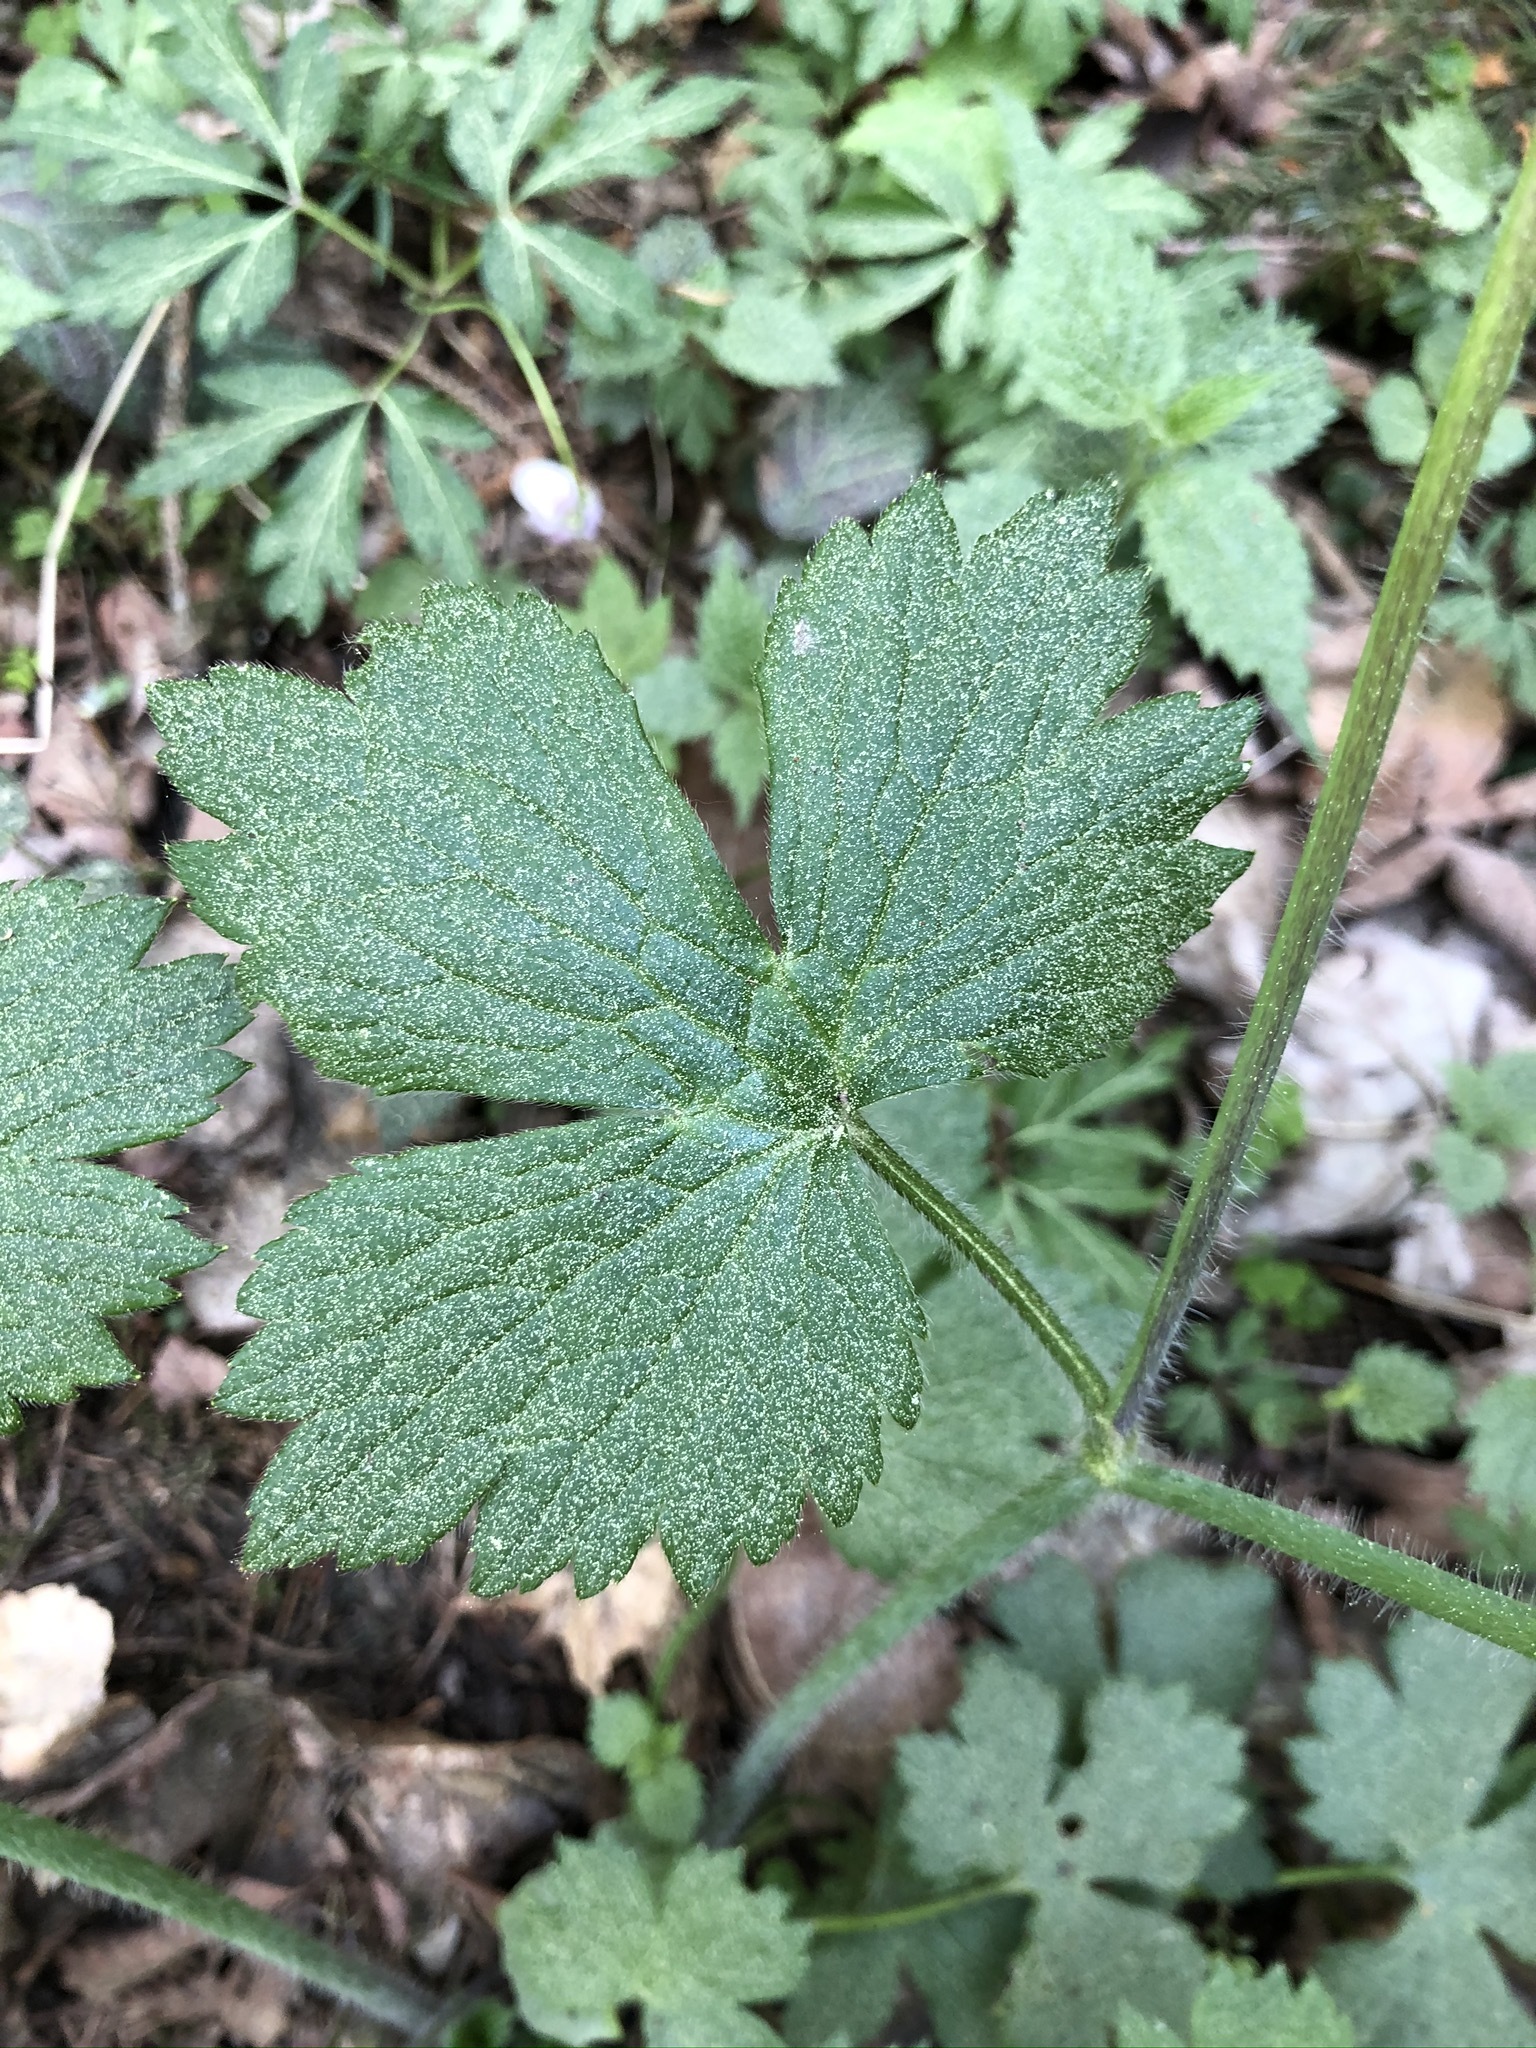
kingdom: Plantae
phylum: Tracheophyta
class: Magnoliopsida
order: Ranunculales
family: Ranunculaceae
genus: Ranunculus
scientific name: Ranunculus lanuginosus
